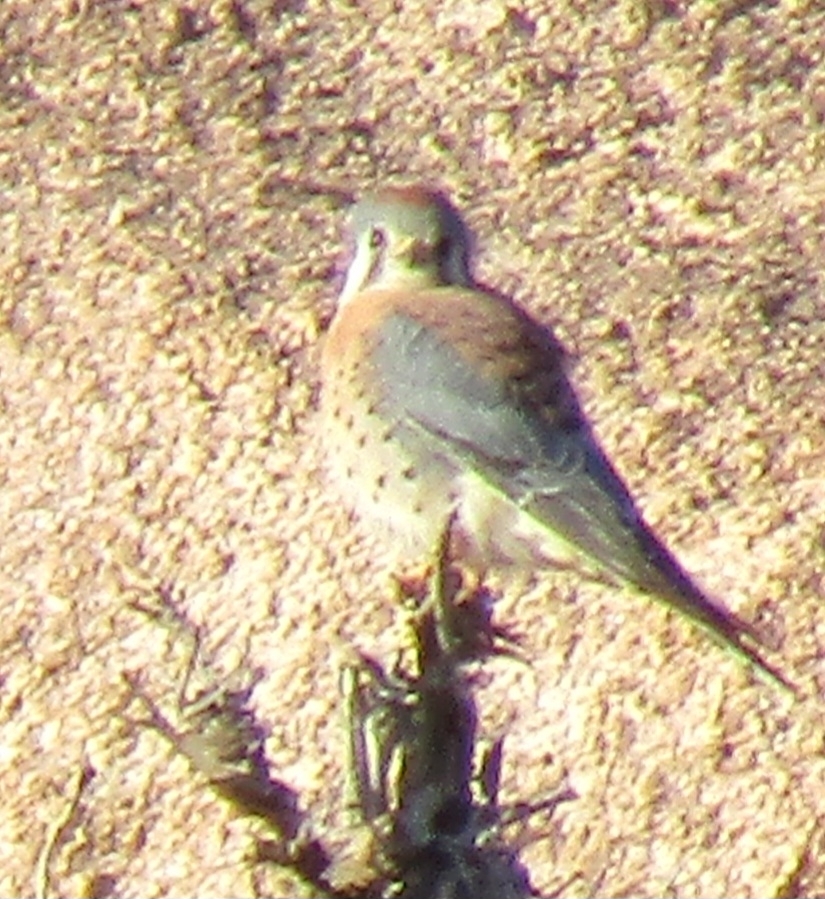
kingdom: Animalia
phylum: Chordata
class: Aves
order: Falconiformes
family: Falconidae
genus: Falco
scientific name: Falco sparverius
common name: American kestrel
